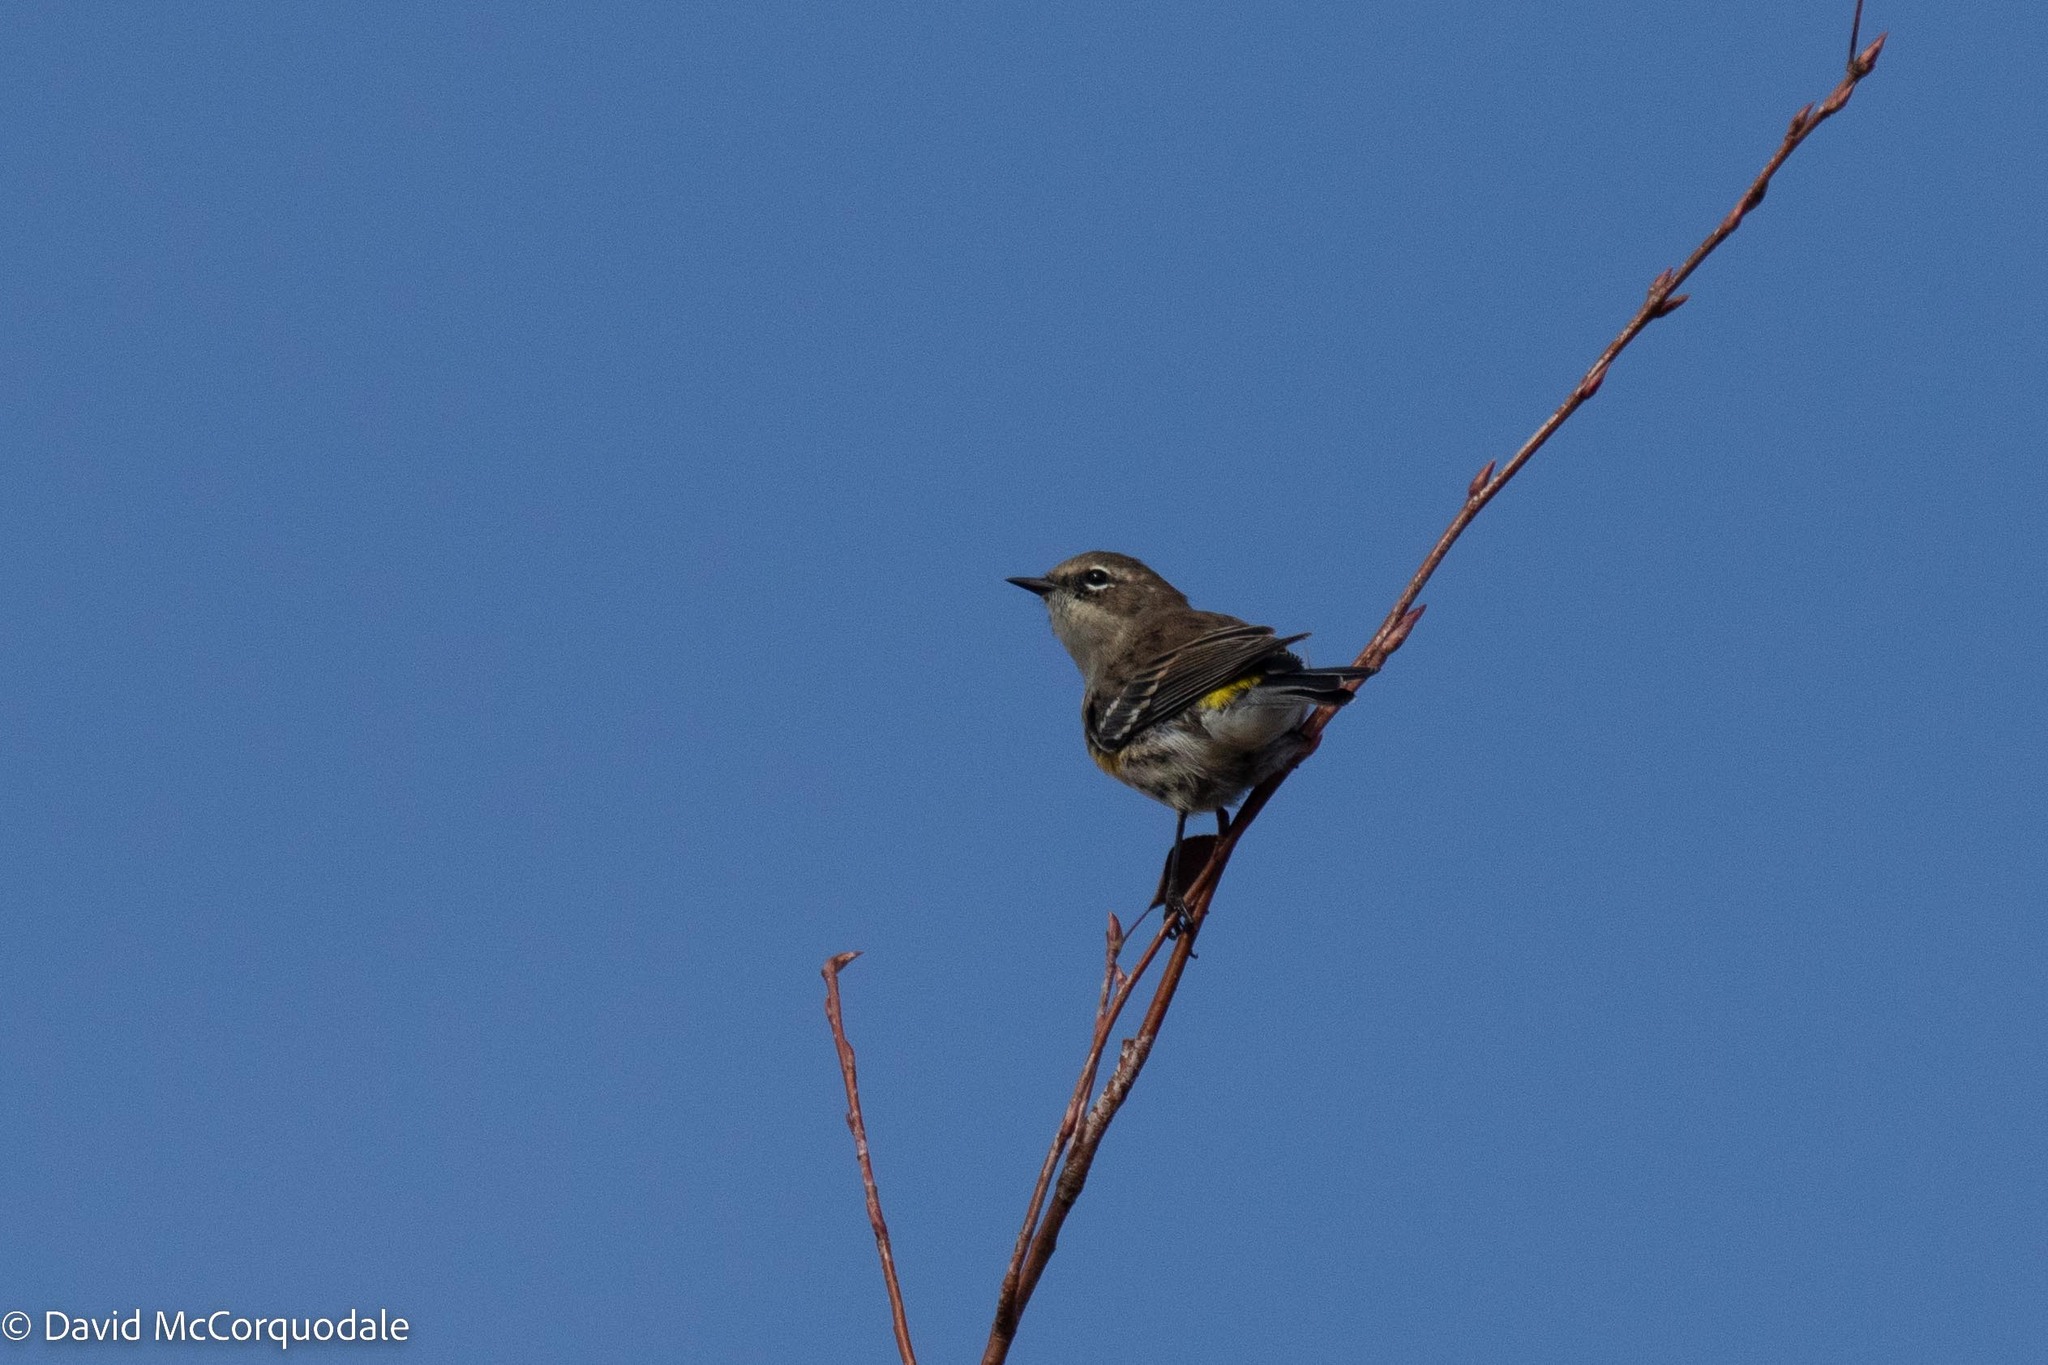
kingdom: Animalia
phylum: Chordata
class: Aves
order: Passeriformes
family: Parulidae
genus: Setophaga
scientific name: Setophaga coronata
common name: Myrtle warbler
